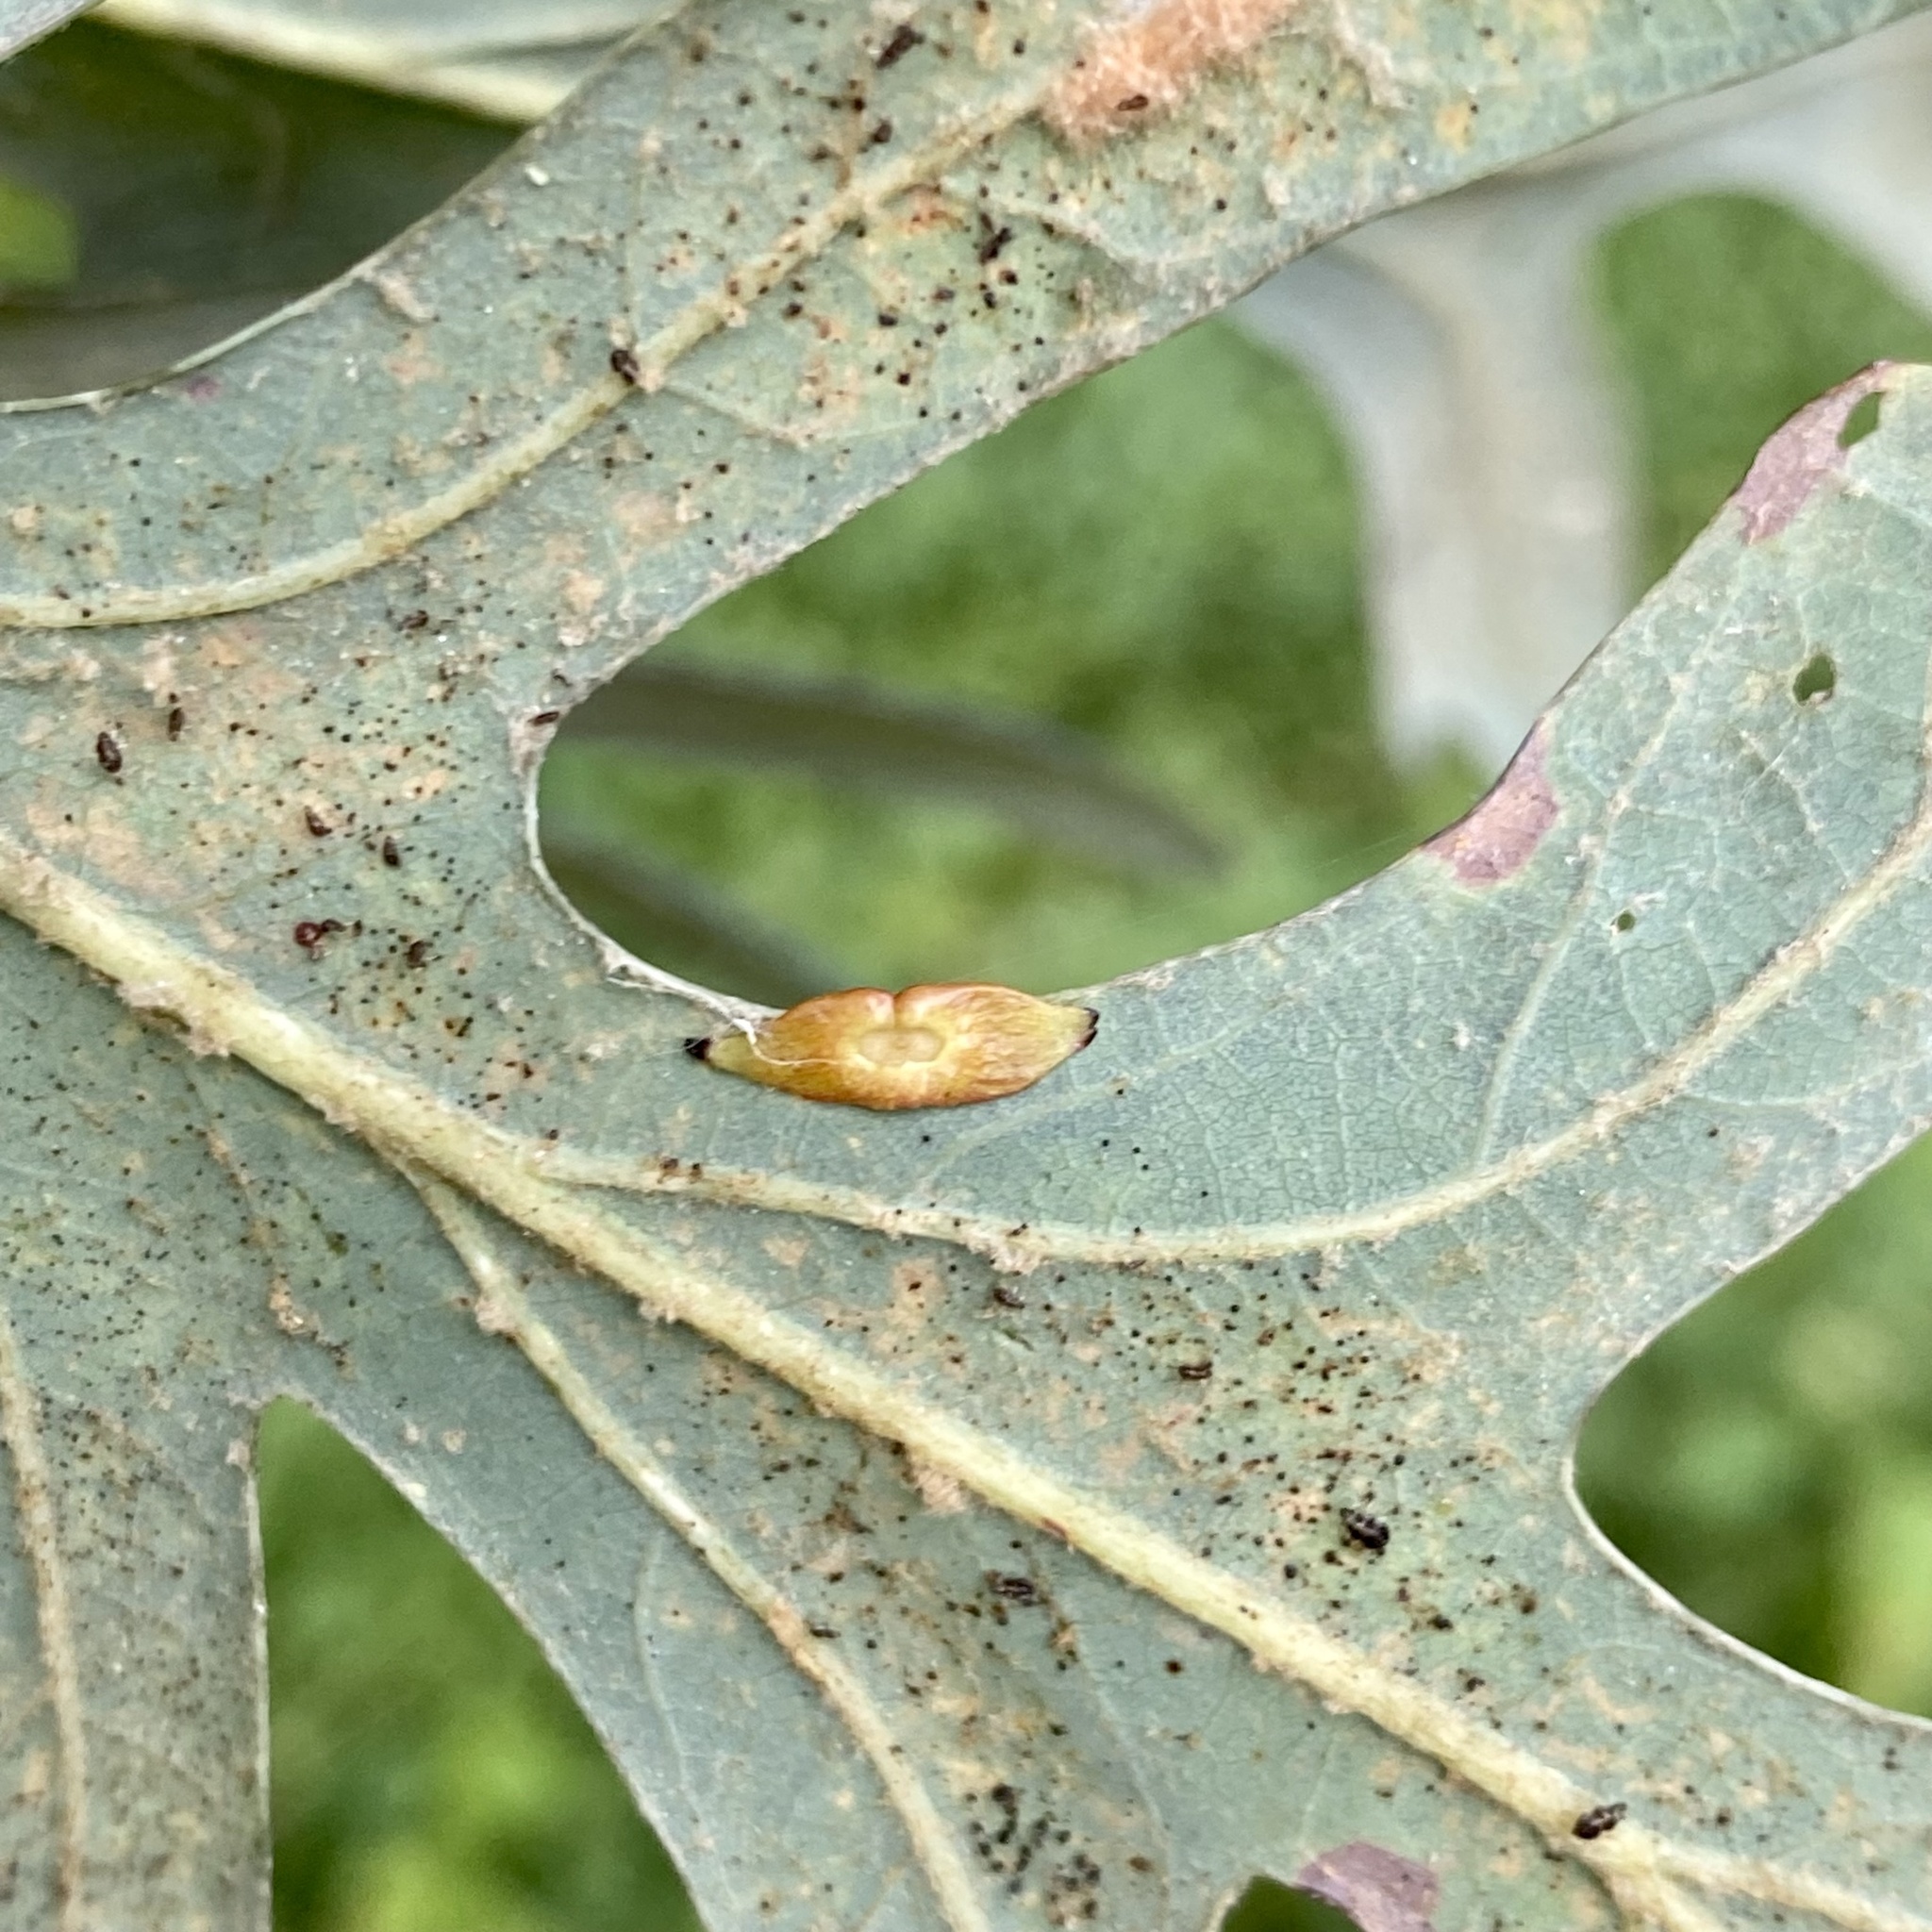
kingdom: Animalia
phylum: Arthropoda
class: Insecta
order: Hymenoptera
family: Cynipidae
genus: Phylloteras
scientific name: Phylloteras
